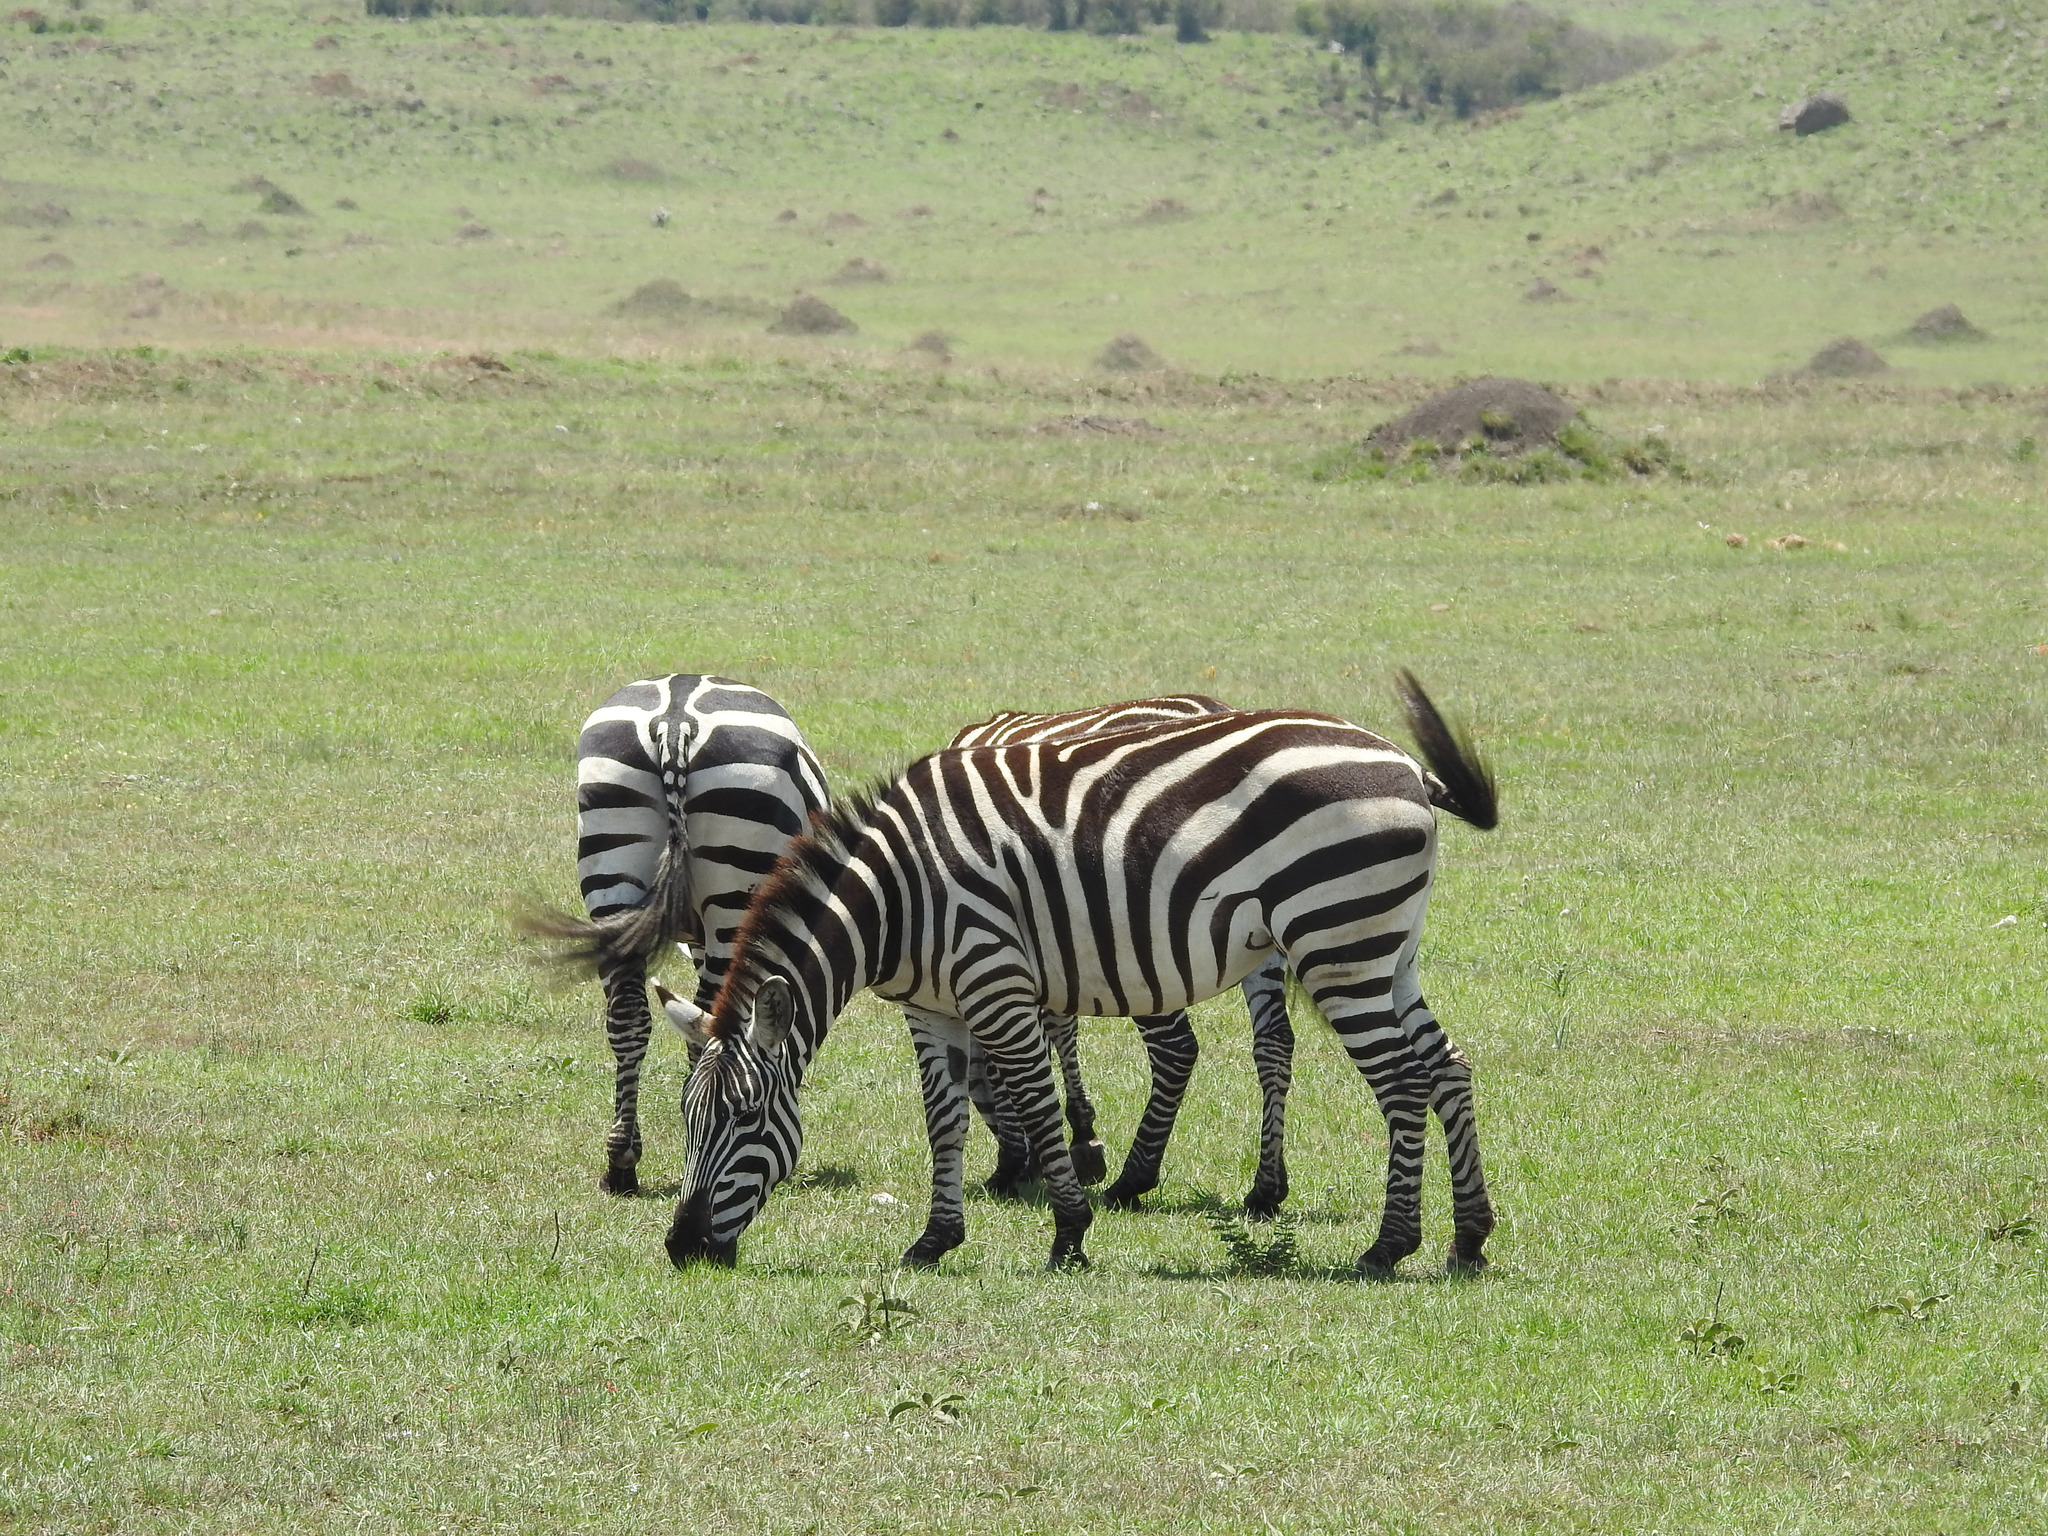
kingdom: Animalia
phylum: Chordata
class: Mammalia
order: Perissodactyla
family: Equidae
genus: Equus
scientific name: Equus quagga
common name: Plains zebra
